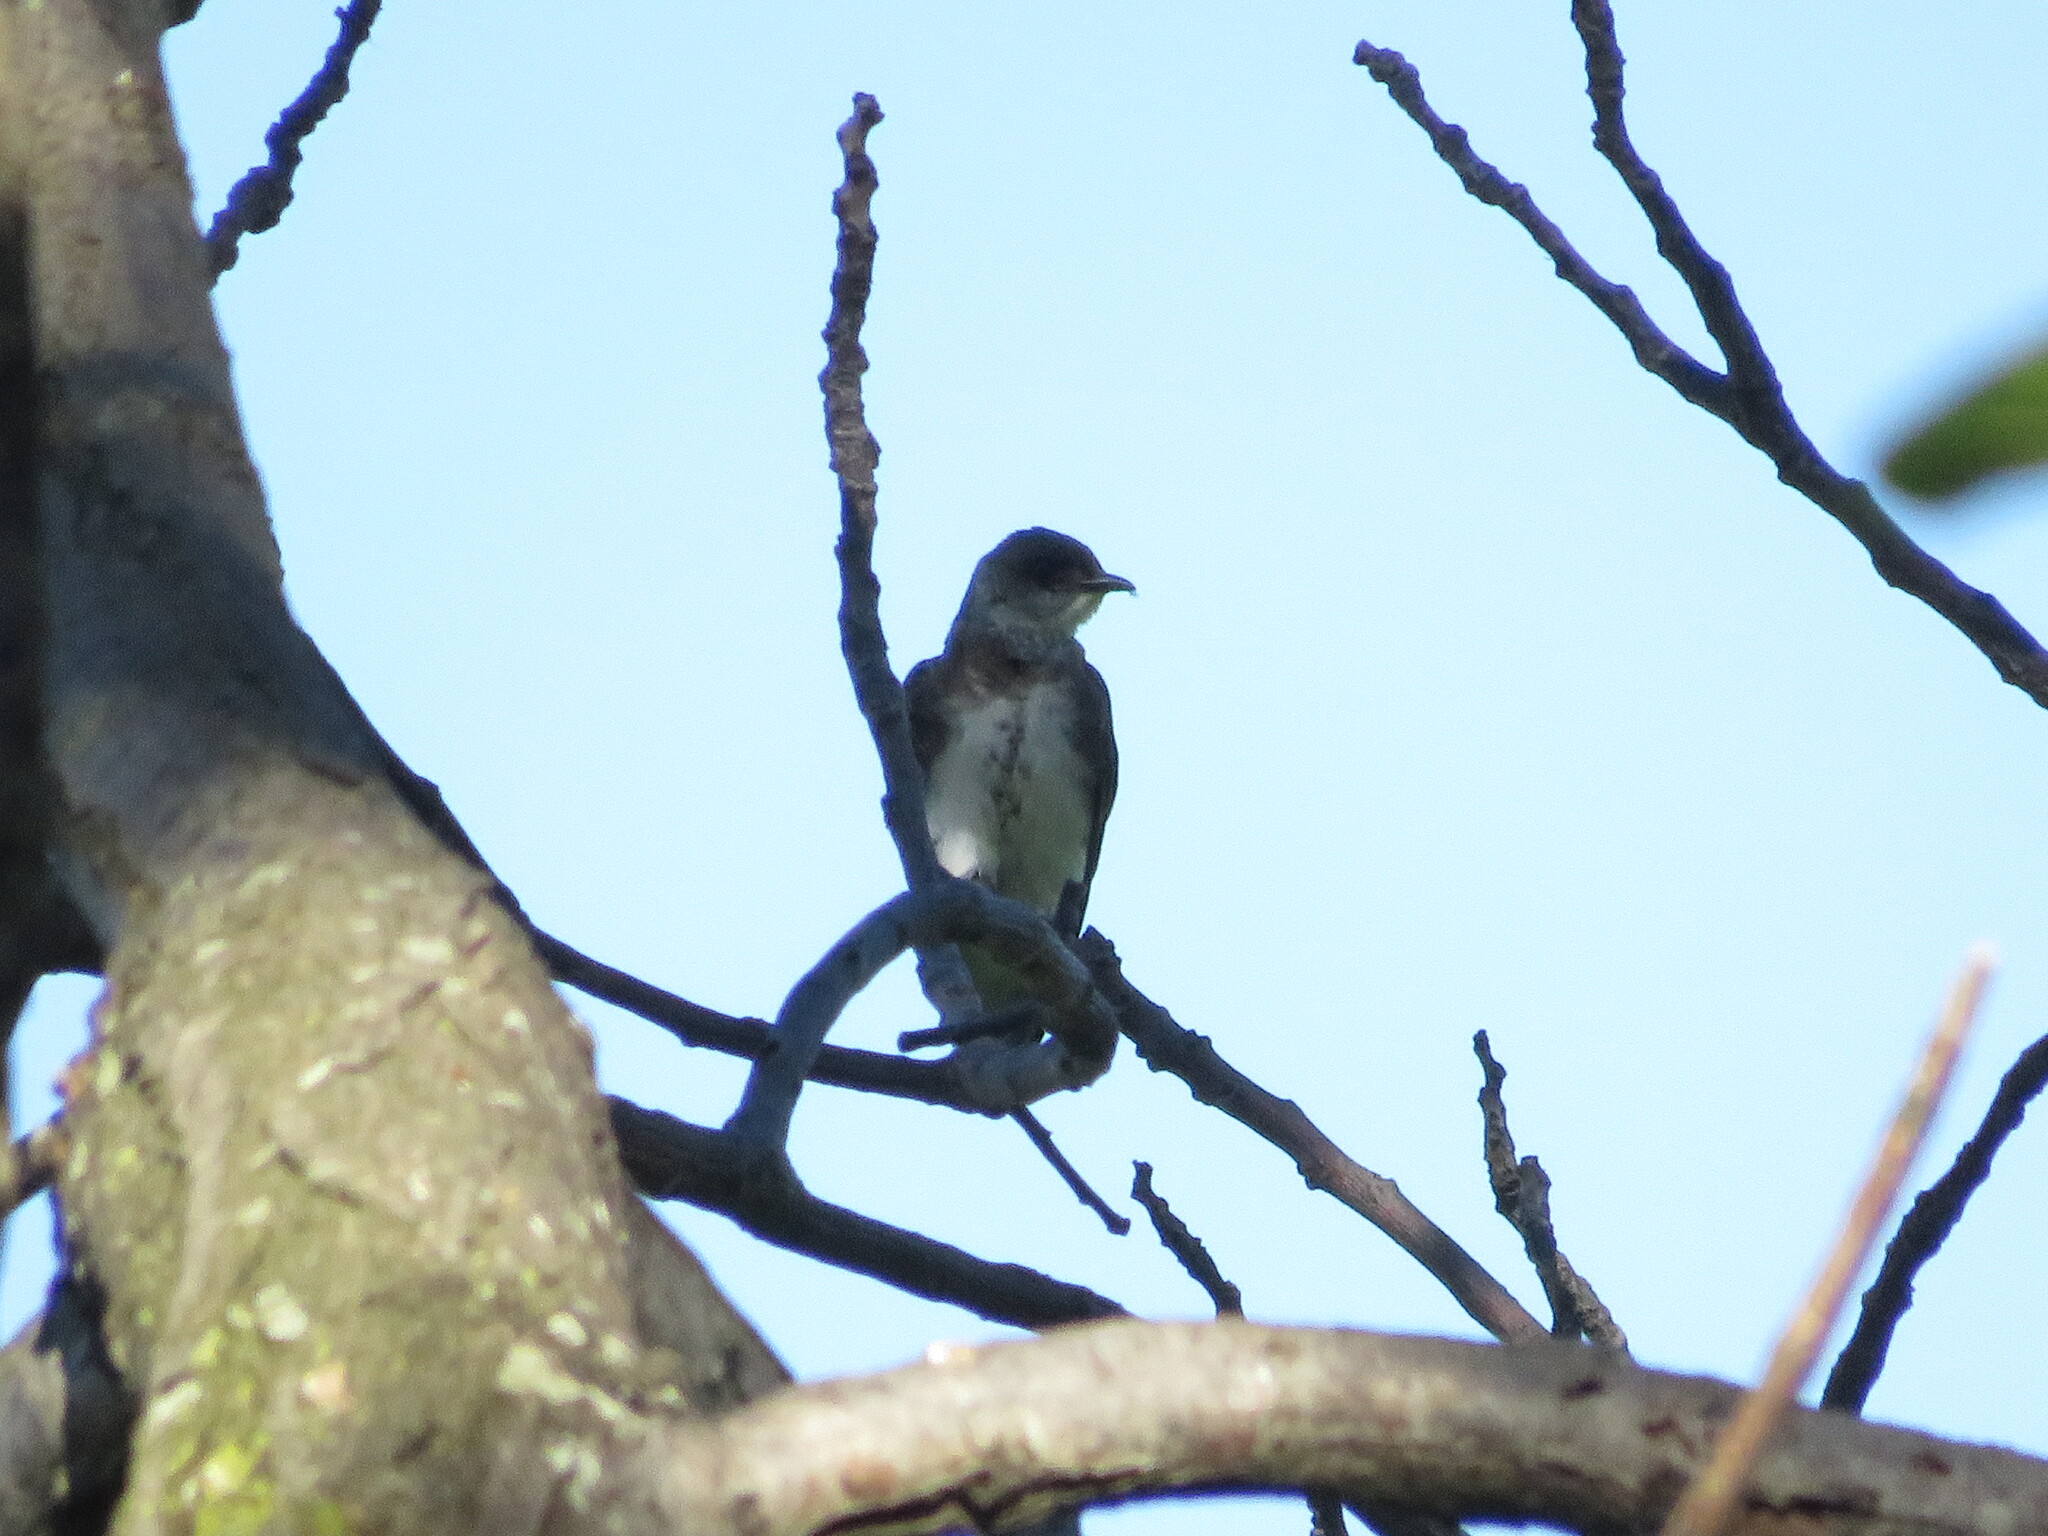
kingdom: Animalia
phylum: Chordata
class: Aves
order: Passeriformes
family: Hirundinidae
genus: Progne
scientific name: Progne tapera
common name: Brown-chested martin
